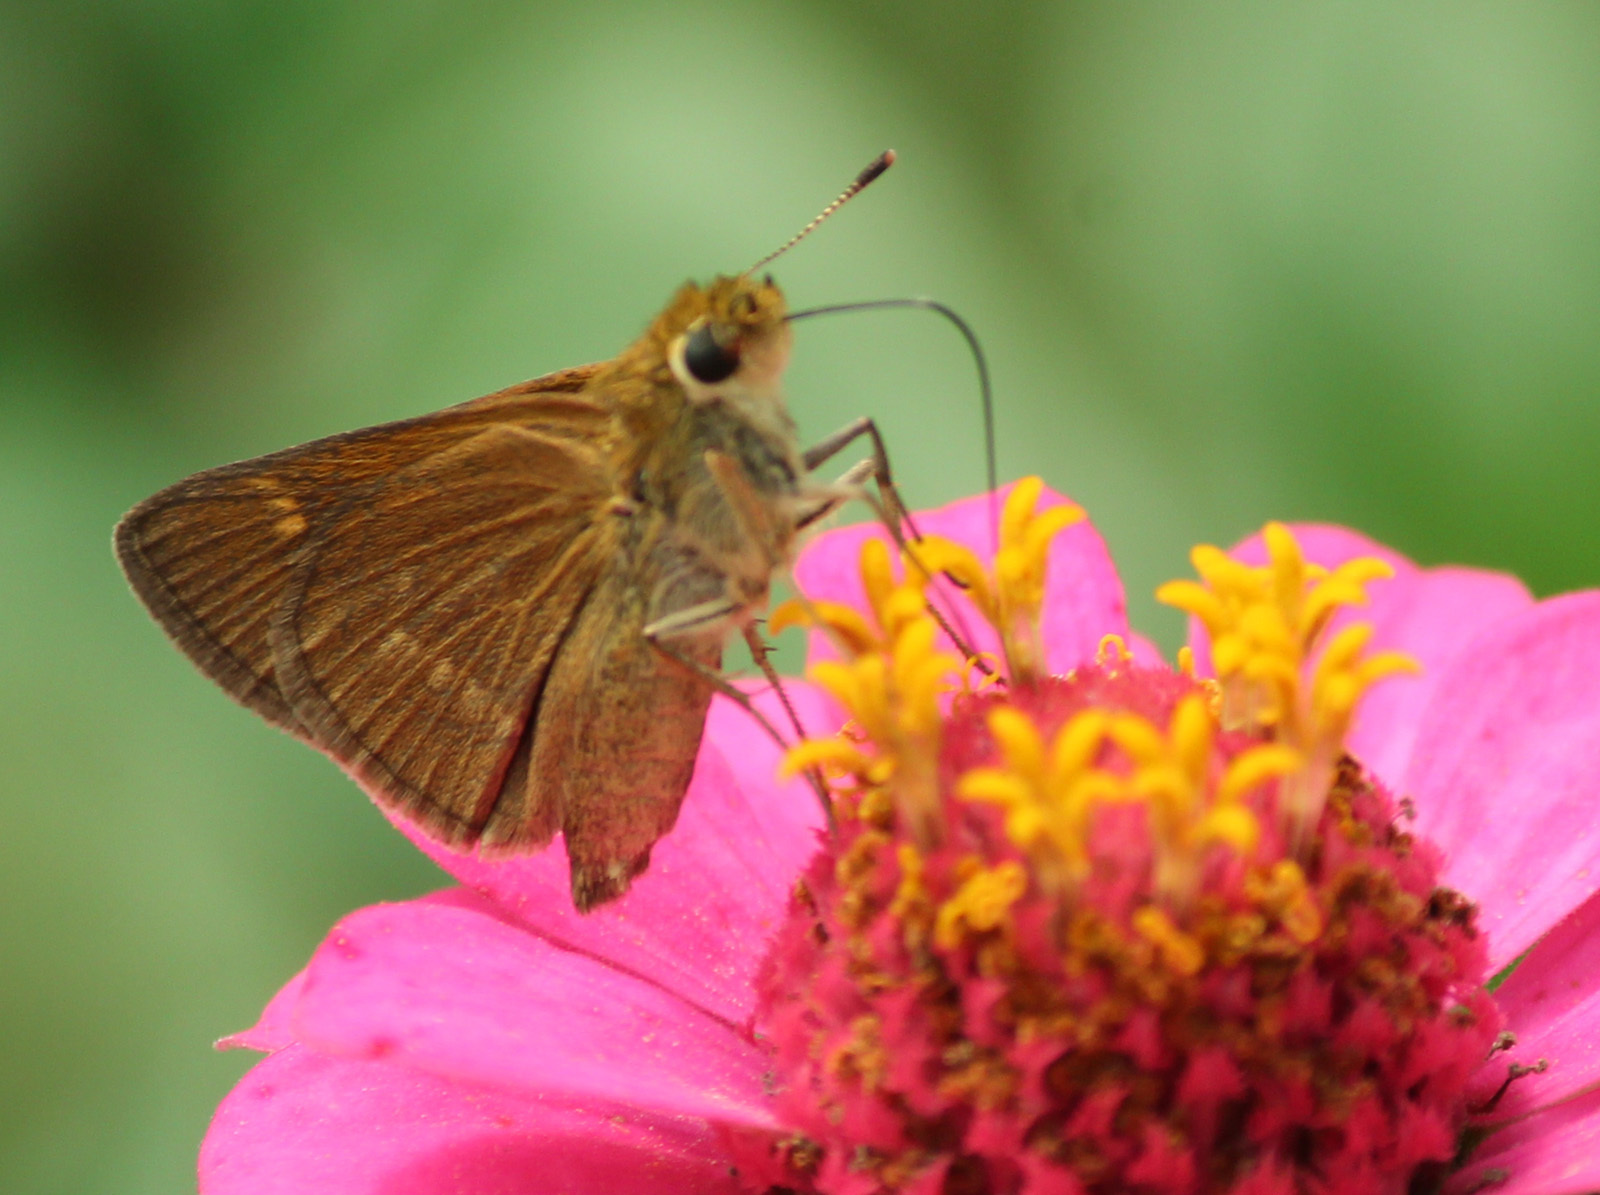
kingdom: Animalia
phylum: Arthropoda
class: Insecta
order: Lepidoptera
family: Hesperiidae
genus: Polites
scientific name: Polites origenes
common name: Crossline skipper
